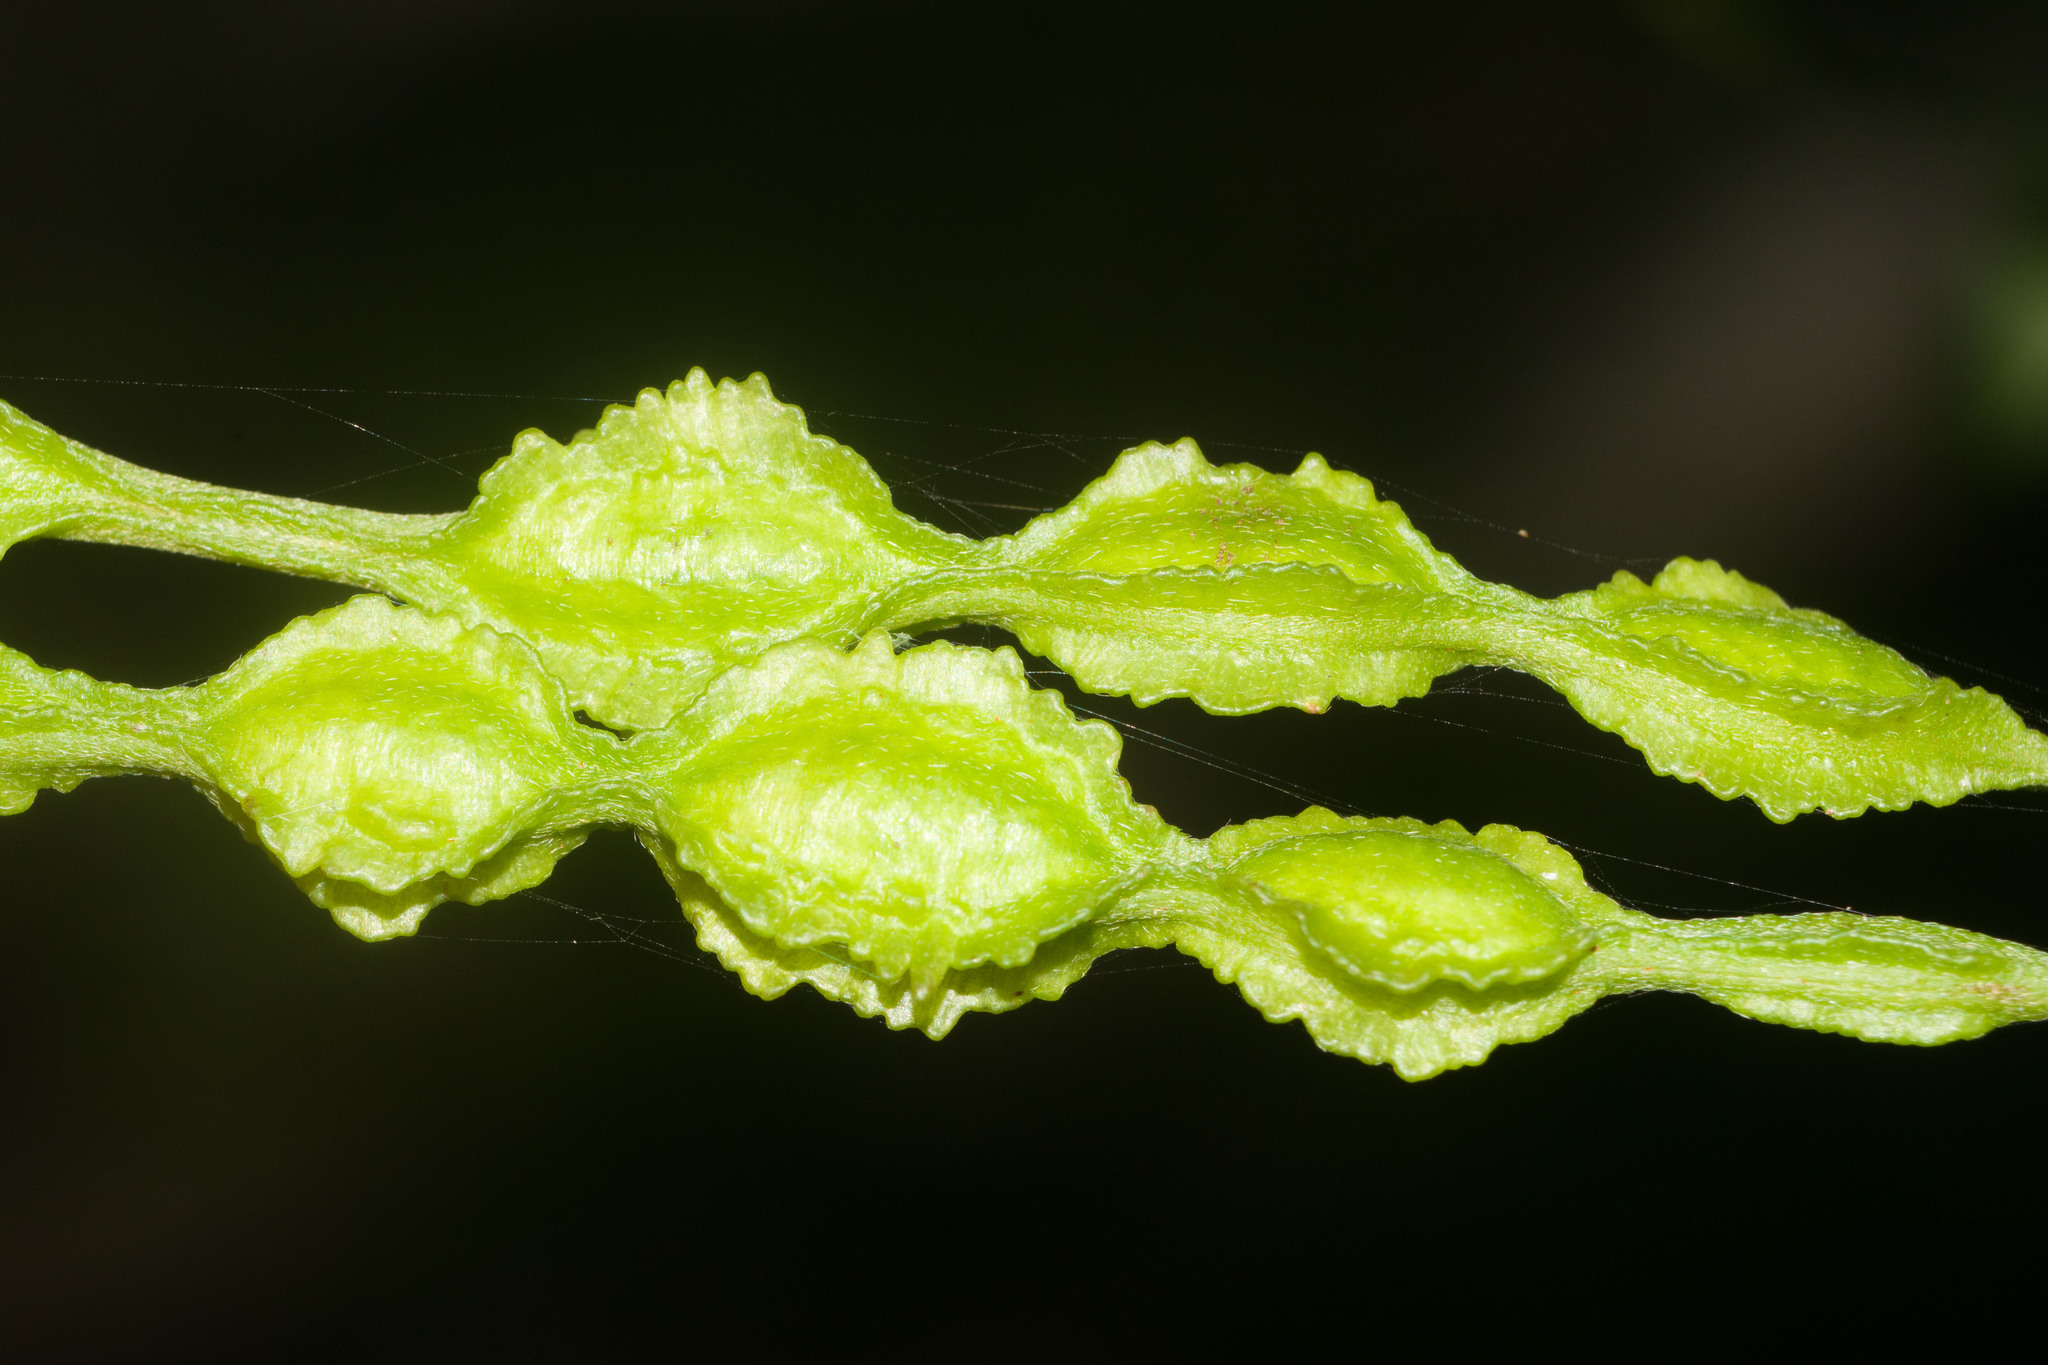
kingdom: Plantae
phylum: Tracheophyta
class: Magnoliopsida
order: Fabales
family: Fabaceae
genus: Sophora
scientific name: Sophora chrysophylla
